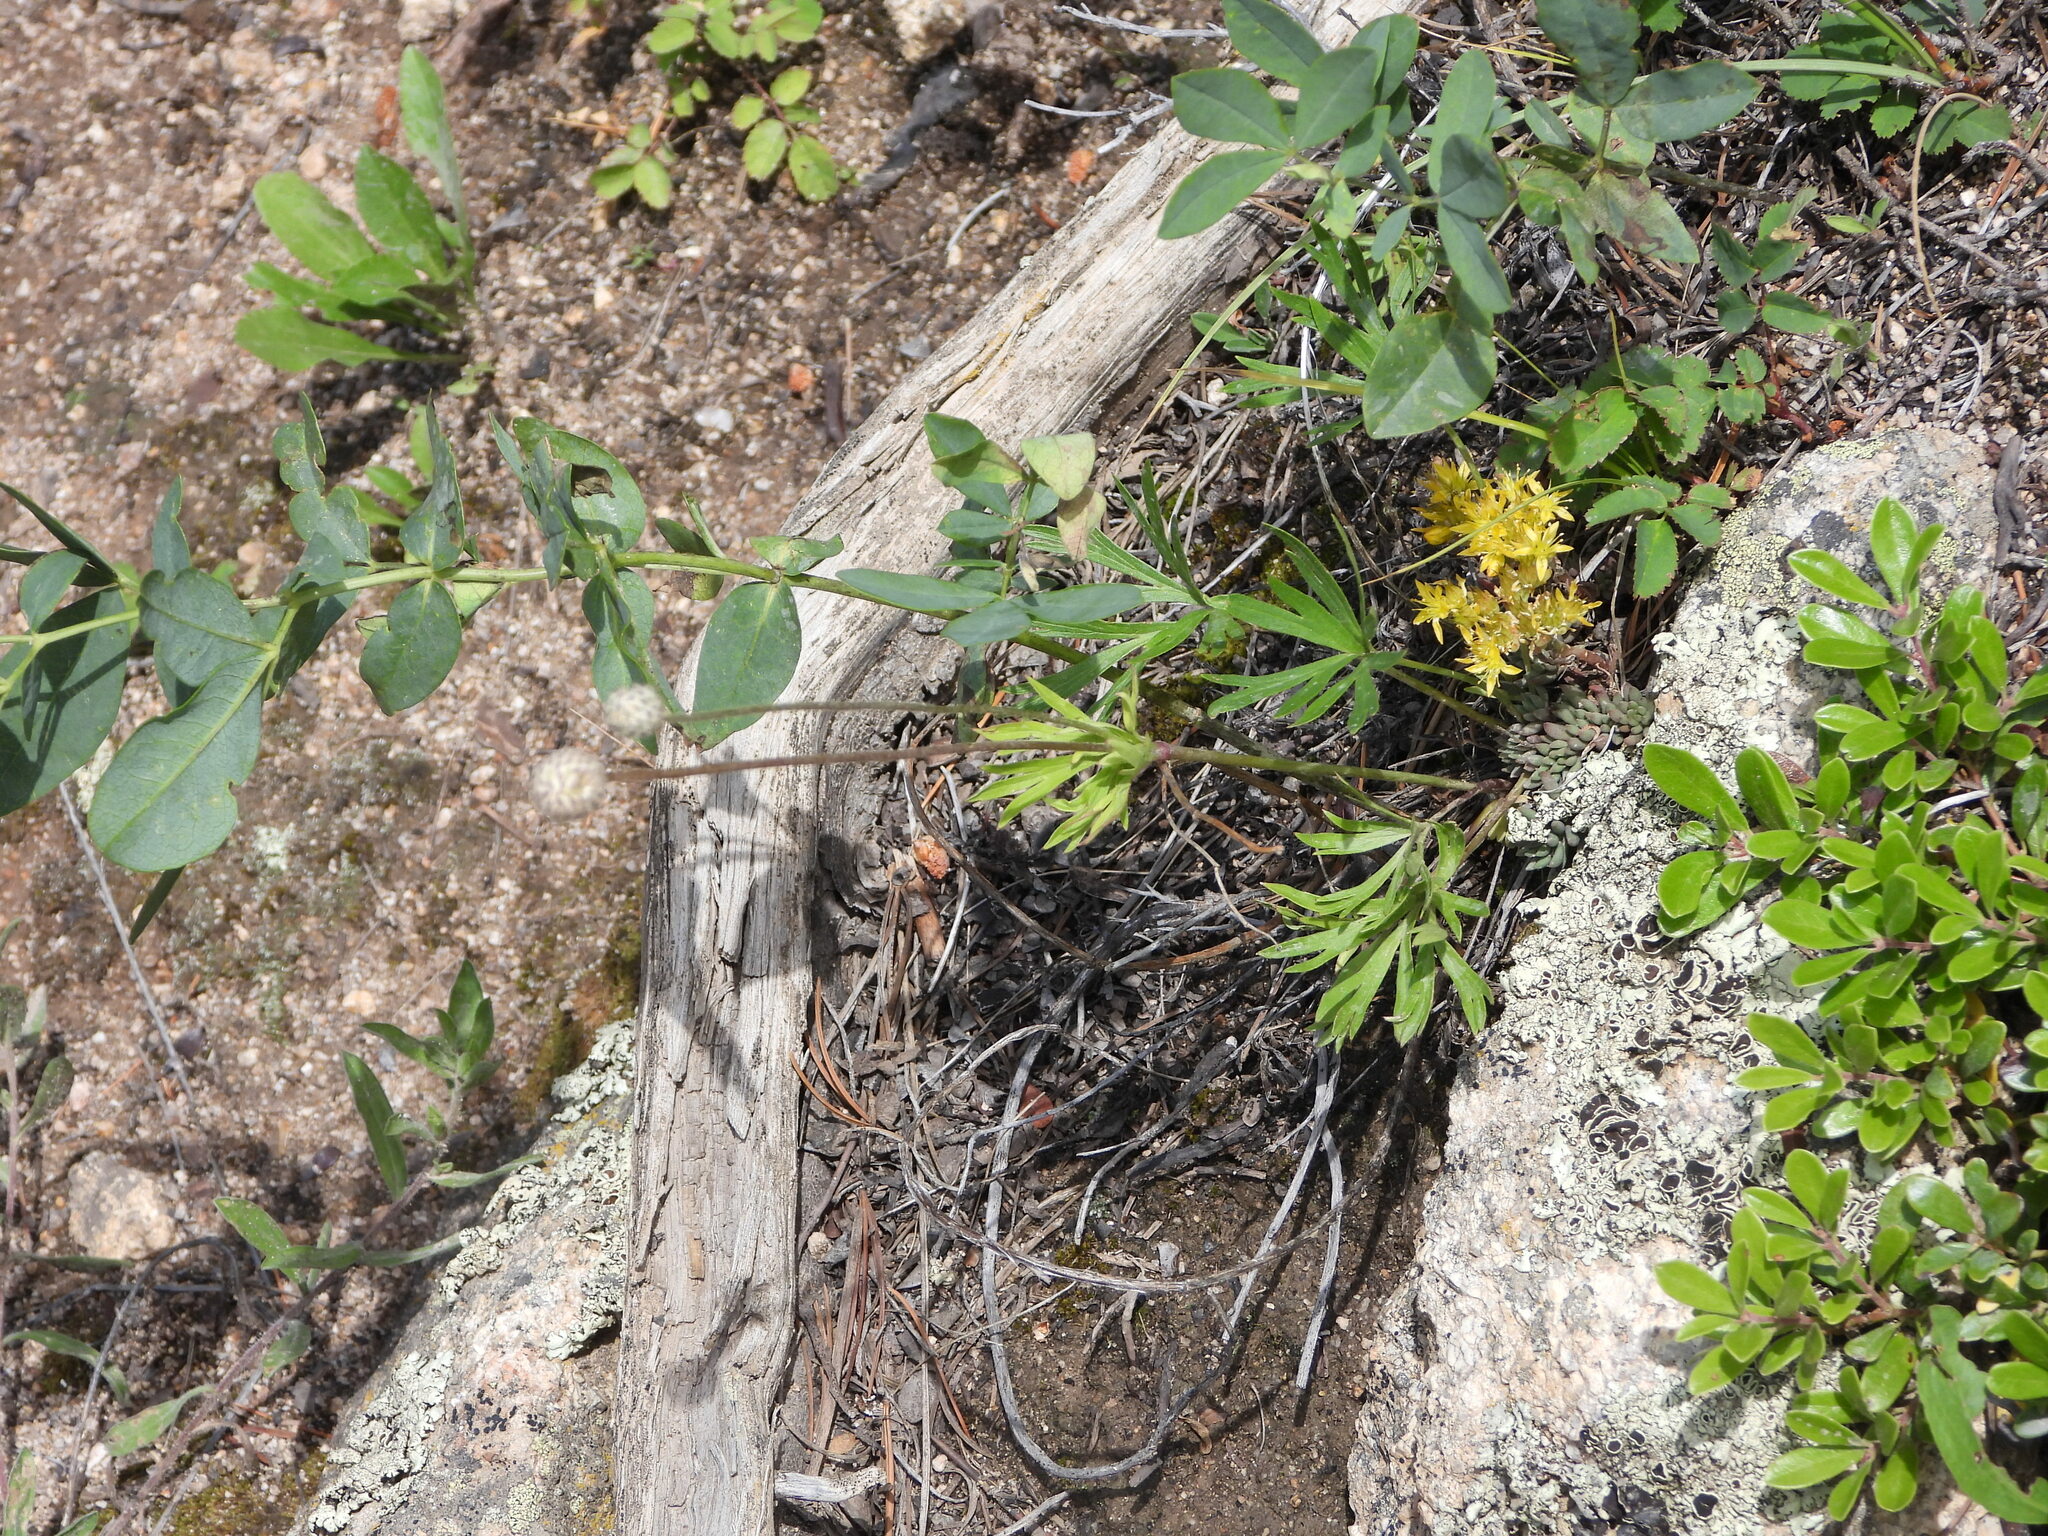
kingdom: Plantae
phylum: Tracheophyta
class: Magnoliopsida
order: Saxifragales
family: Crassulaceae
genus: Sedum
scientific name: Sedum lanceolatum
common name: Common stonecrop
